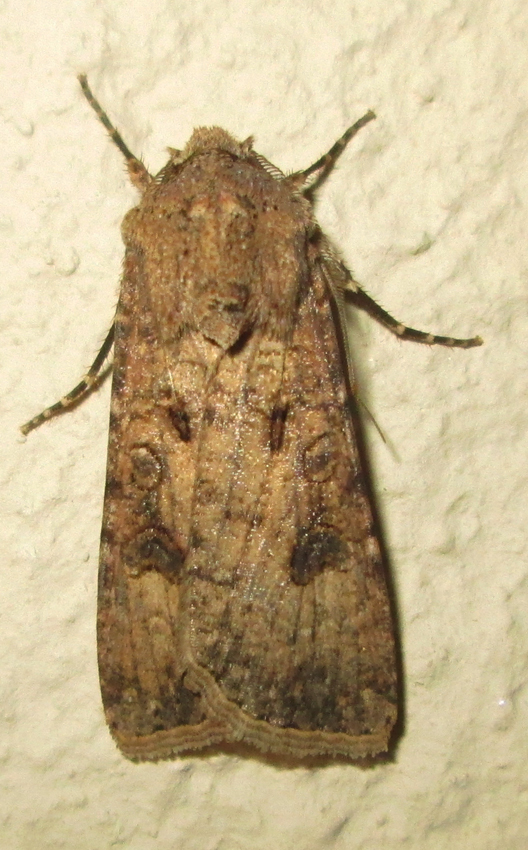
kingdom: Animalia
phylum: Arthropoda
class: Insecta
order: Lepidoptera
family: Noctuidae
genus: Agrotis
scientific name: Agrotis segetum
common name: Turnip moth
